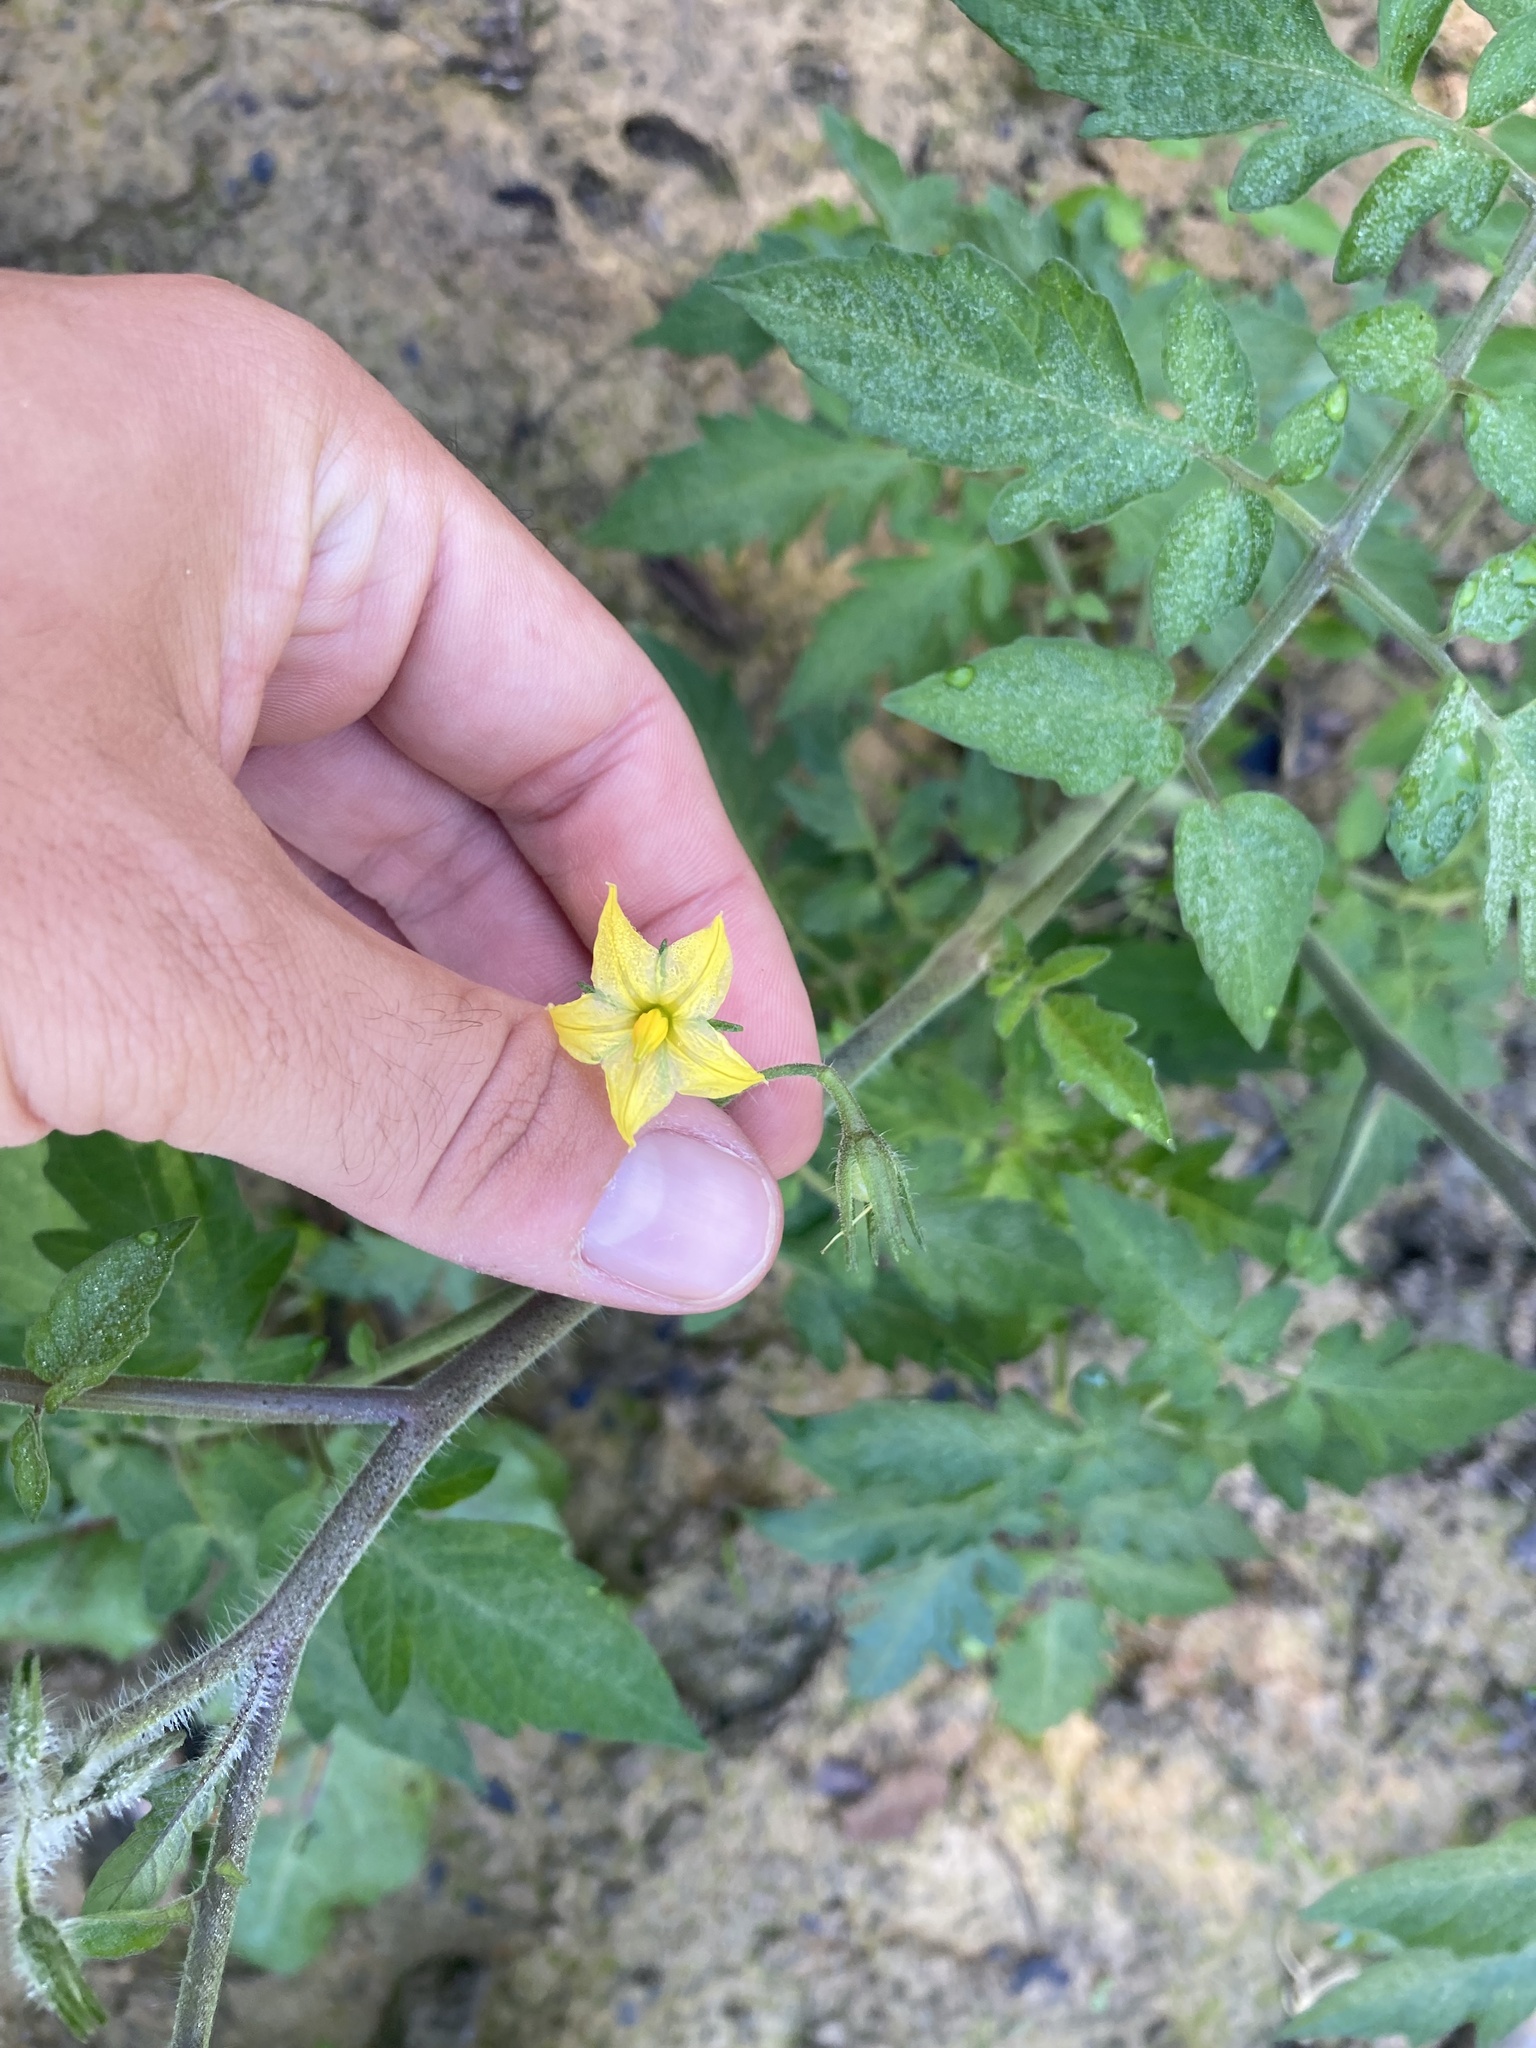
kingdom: Plantae
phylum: Tracheophyta
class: Magnoliopsida
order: Solanales
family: Solanaceae
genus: Solanum
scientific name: Solanum lycopersicum
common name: Garden tomato
